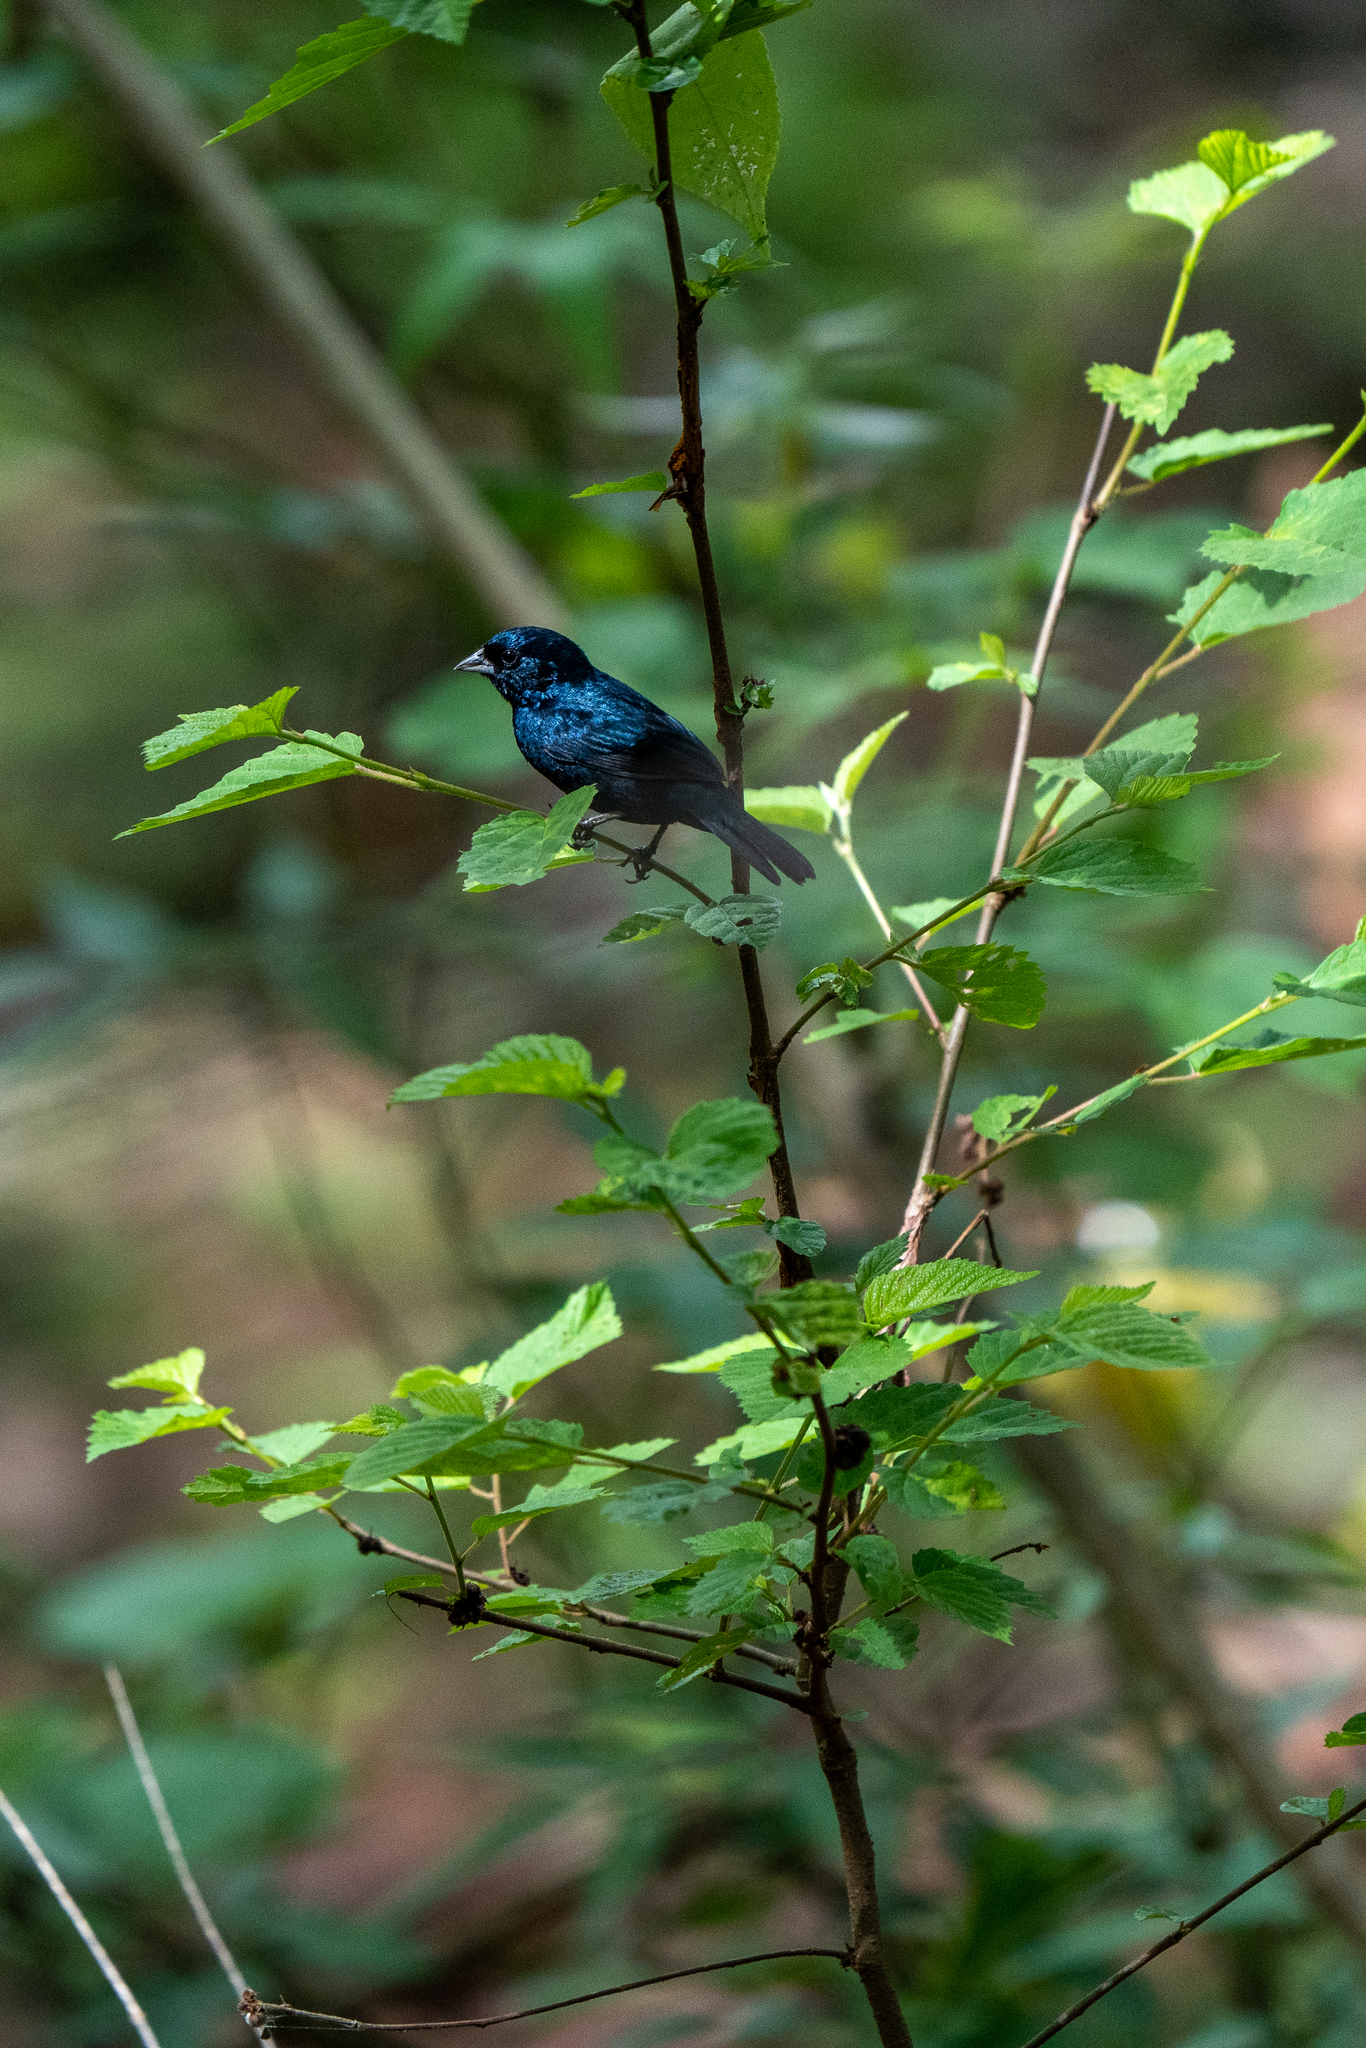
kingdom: Animalia
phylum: Chordata
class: Aves
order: Passeriformes
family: Thraupidae
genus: Volatinia
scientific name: Volatinia jacarina
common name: Blue-black grassquit
